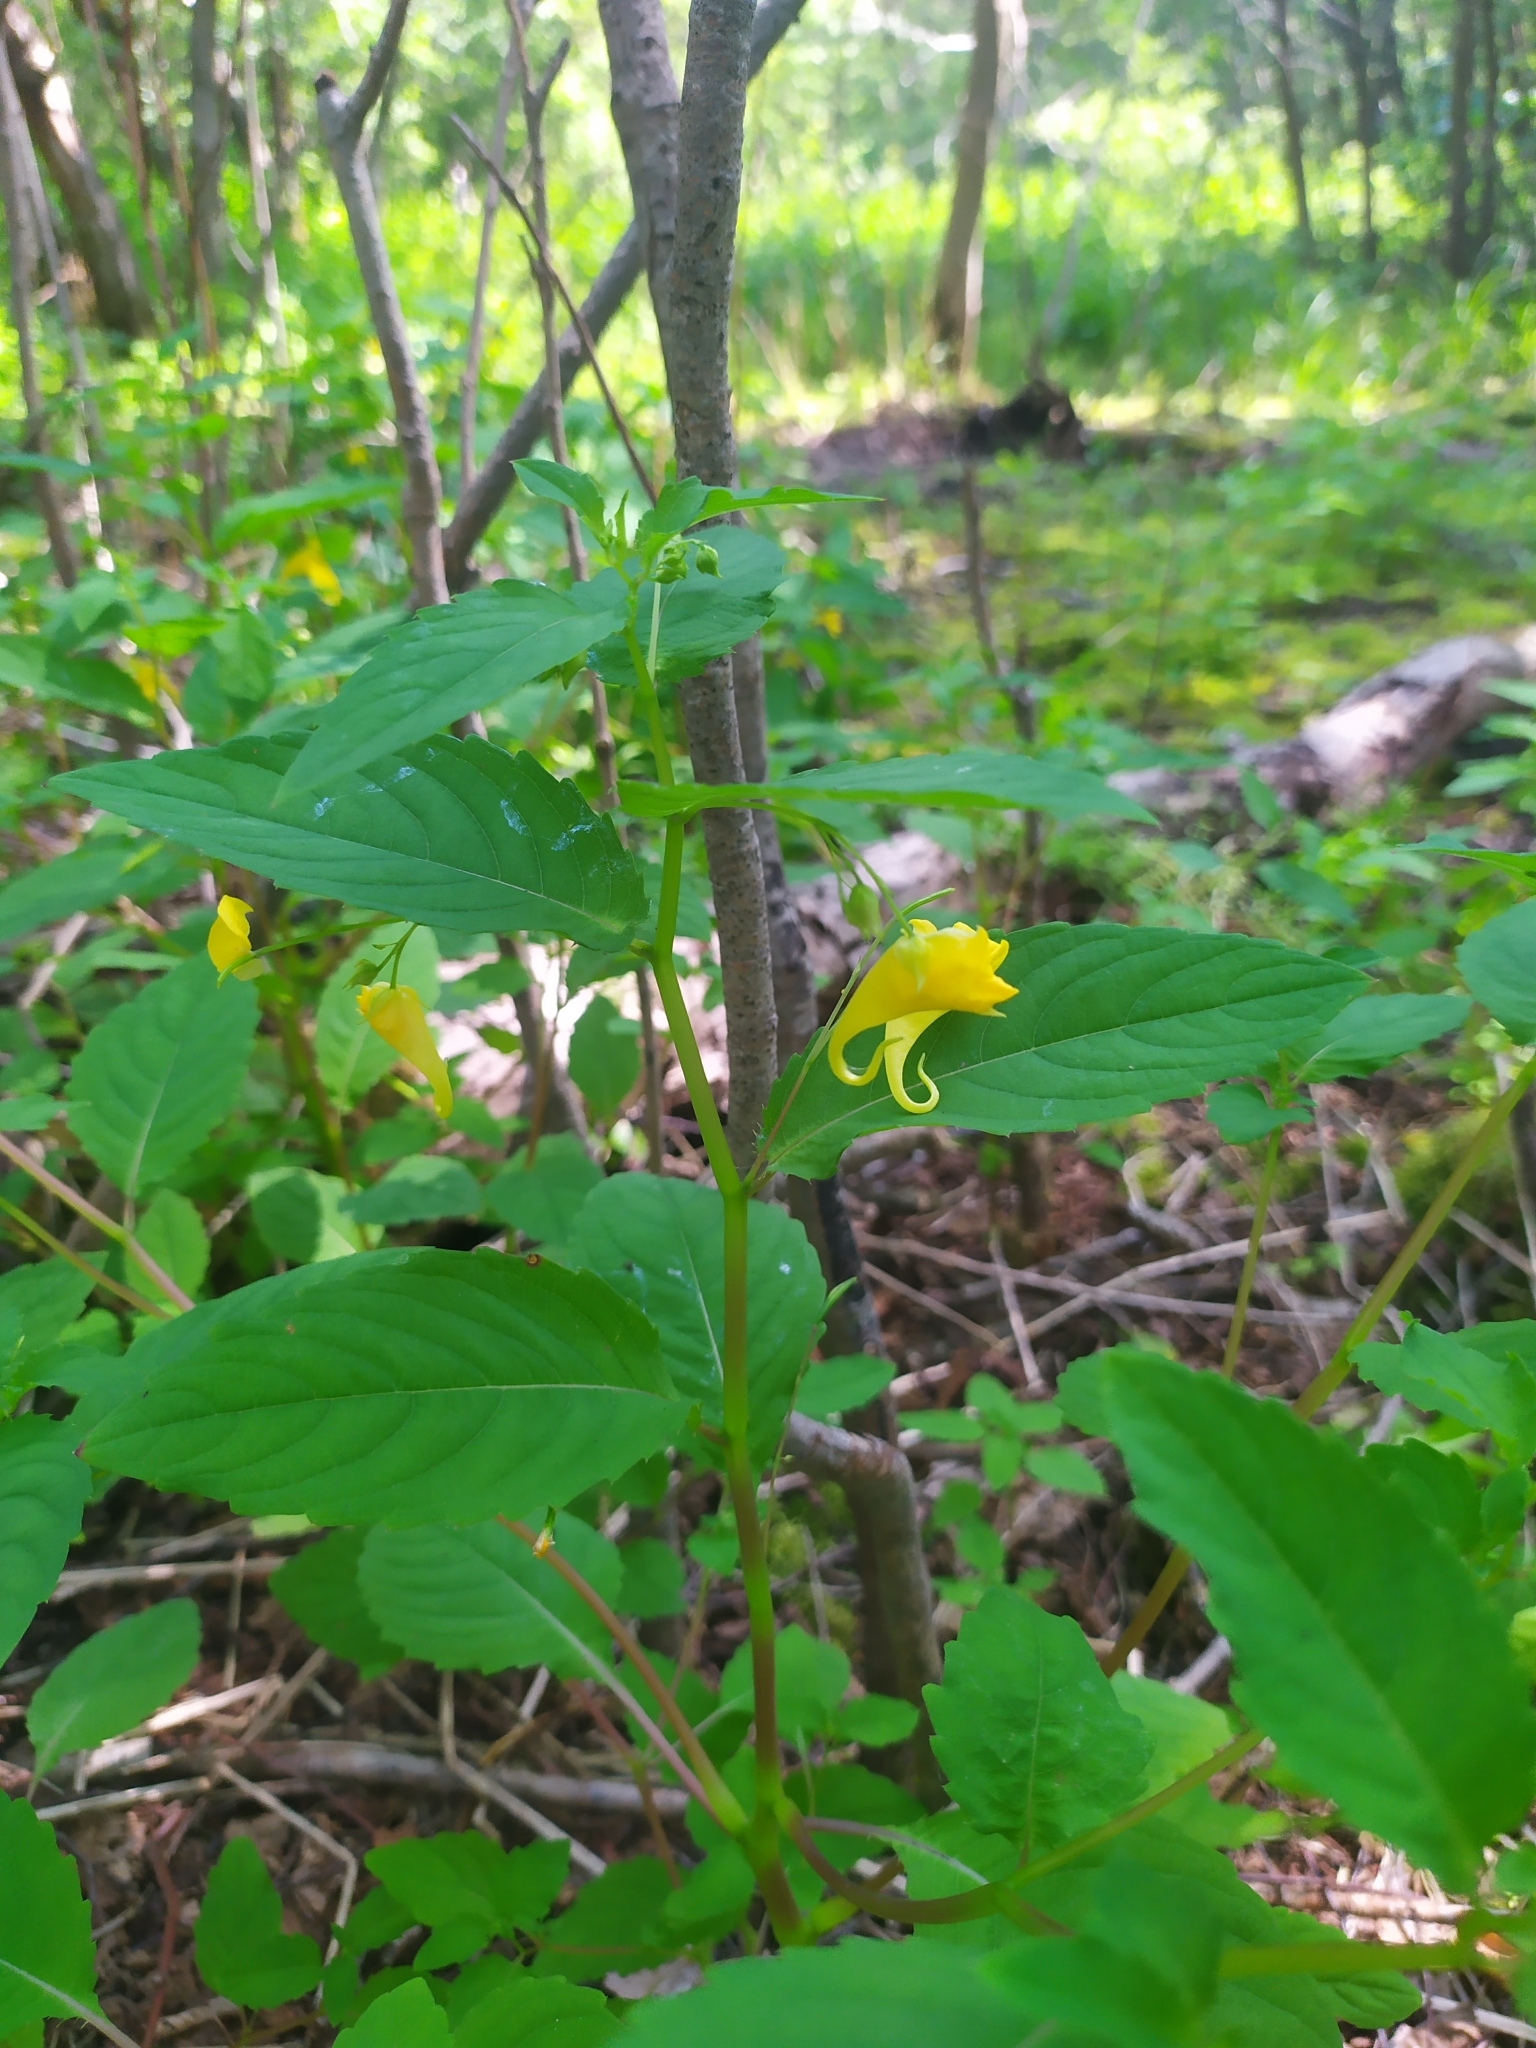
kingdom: Plantae
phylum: Tracheophyta
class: Magnoliopsida
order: Ericales
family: Balsaminaceae
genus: Impatiens
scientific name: Impatiens noli-tangere
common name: Touch-me-not balsam
